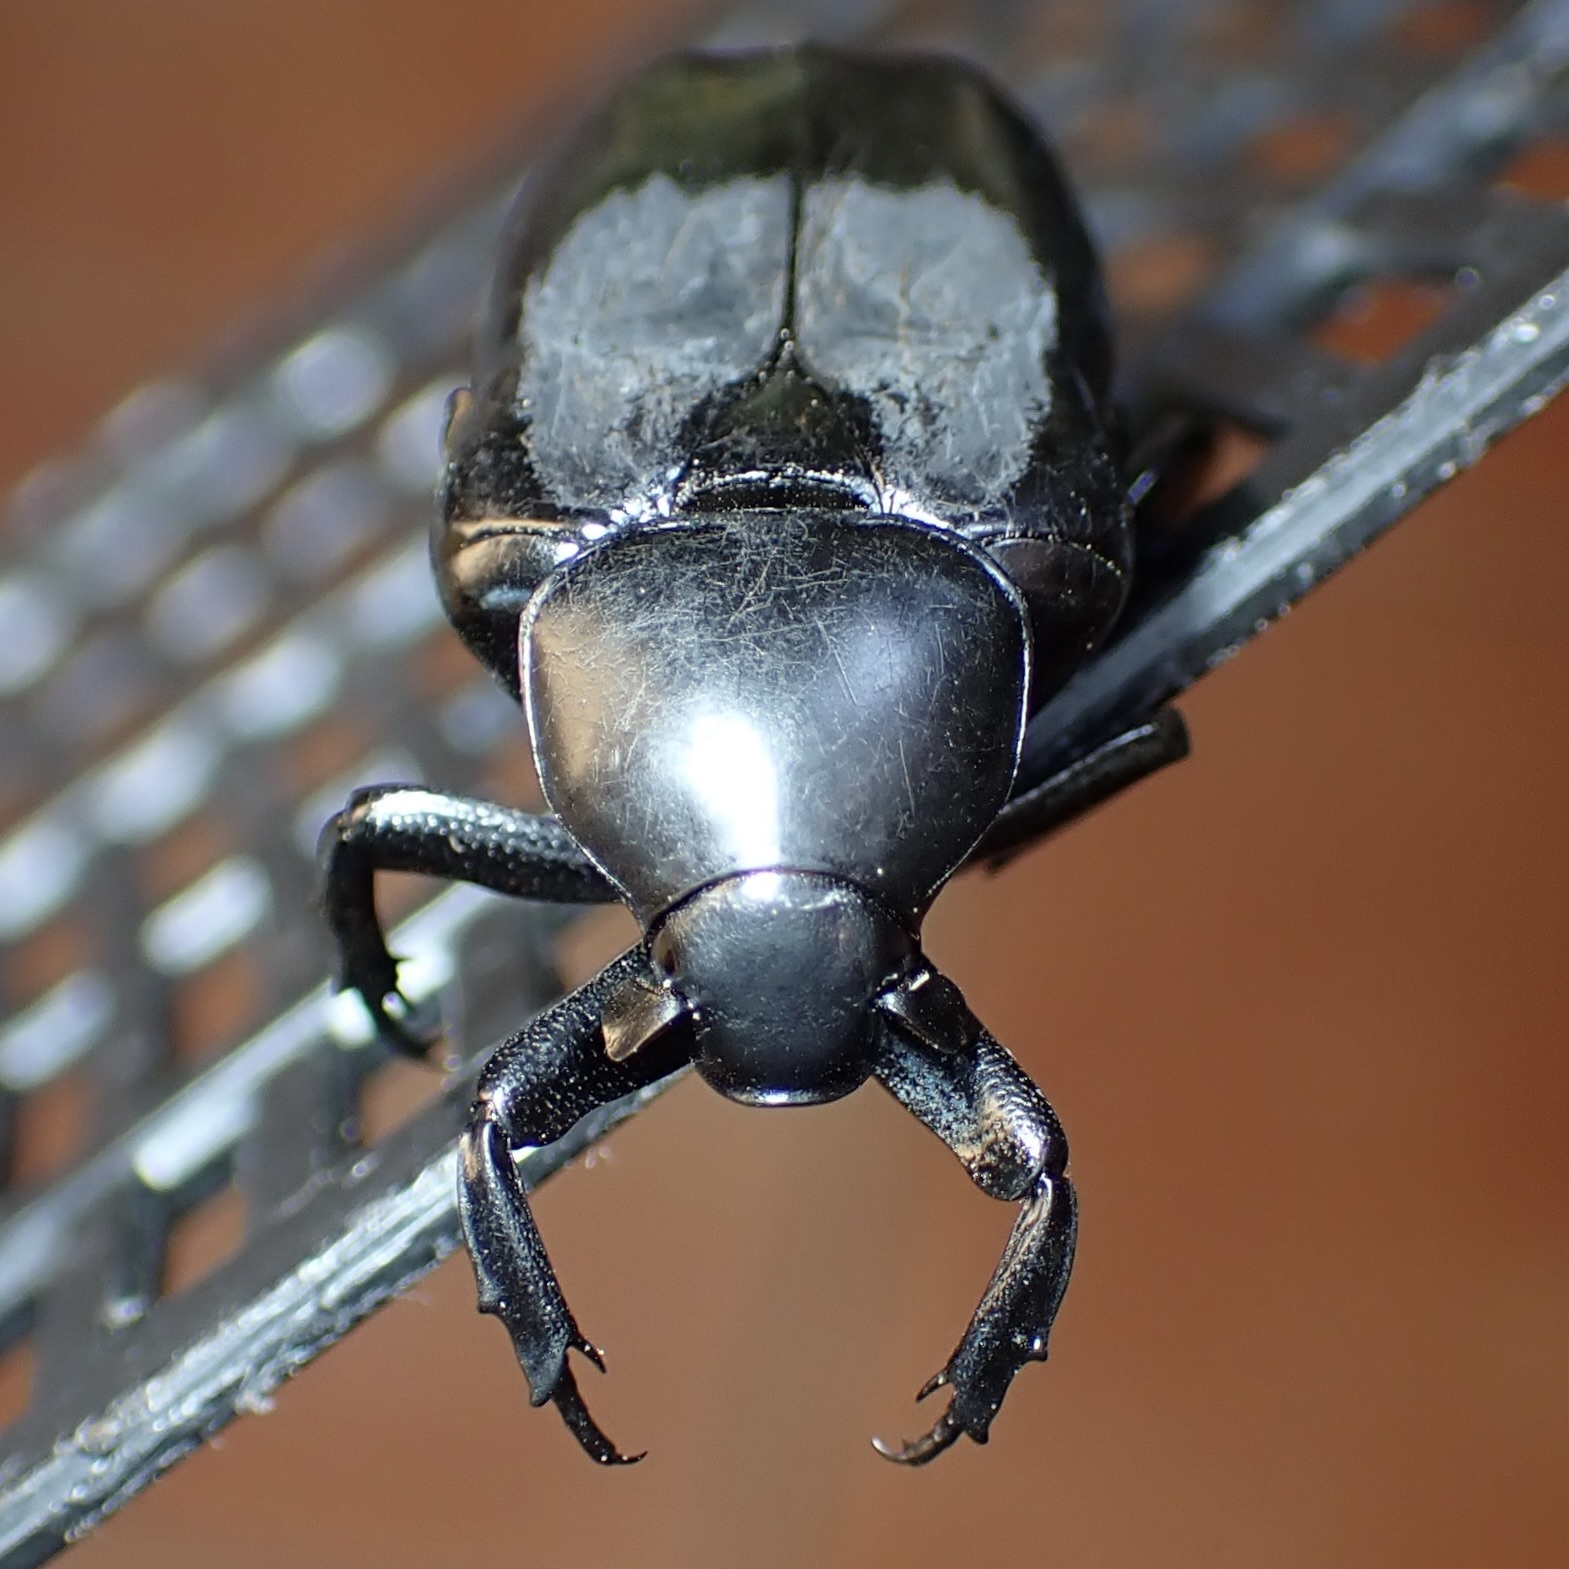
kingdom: Animalia
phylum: Arthropoda
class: Insecta
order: Coleoptera
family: Scarabaeidae
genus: Lissomelas
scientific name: Lissomelas flohri
